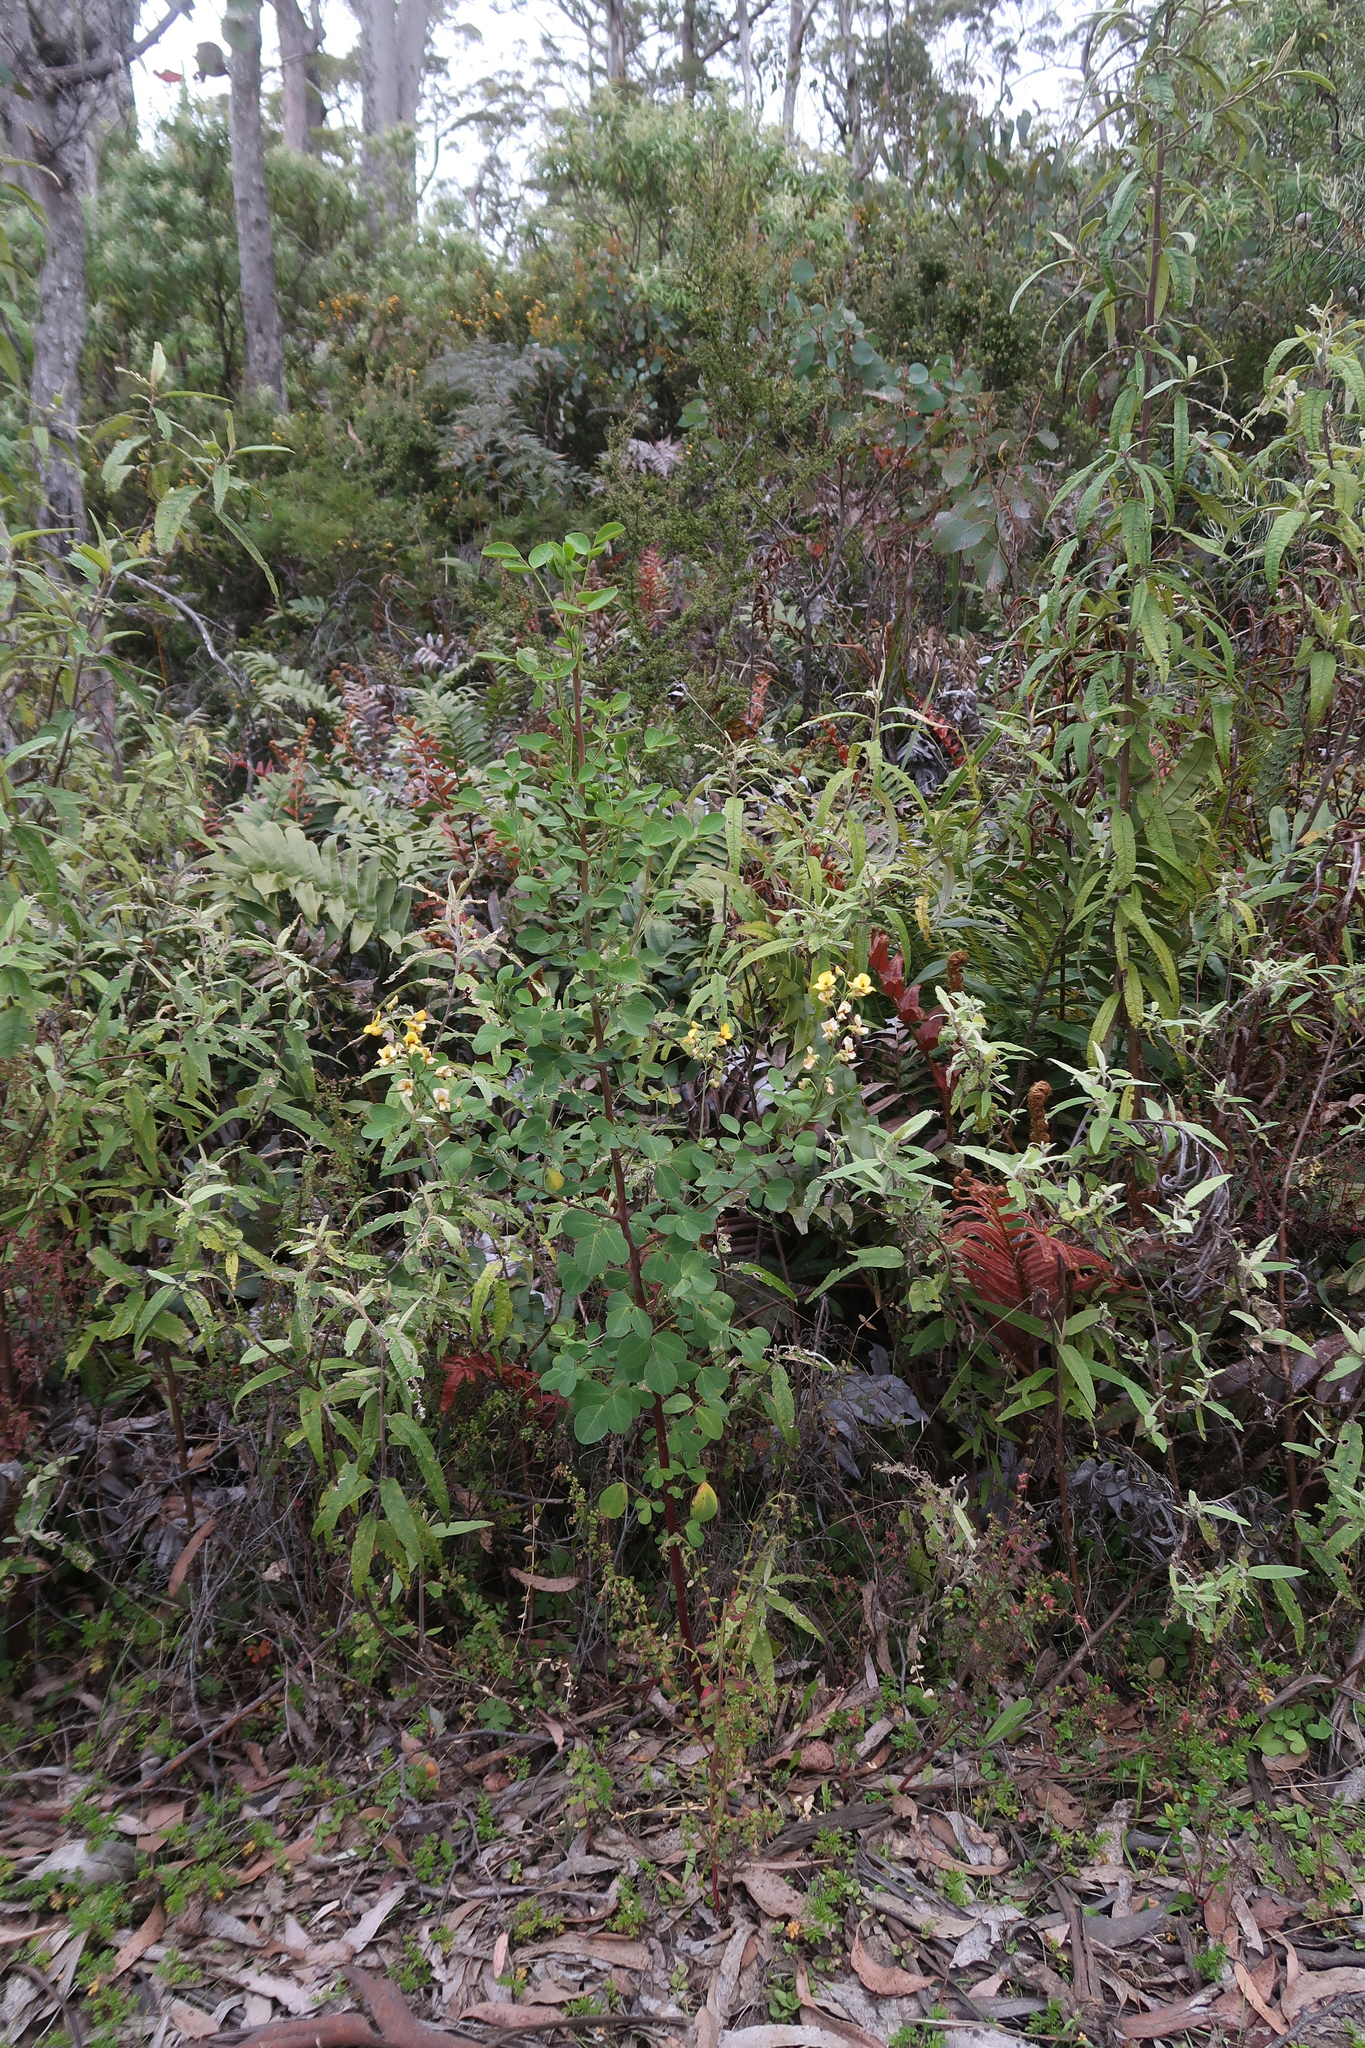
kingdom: Plantae
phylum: Tracheophyta
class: Magnoliopsida
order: Fabales
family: Fabaceae
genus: Goodia
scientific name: Goodia lotifolia
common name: Cloverleaf-poison
